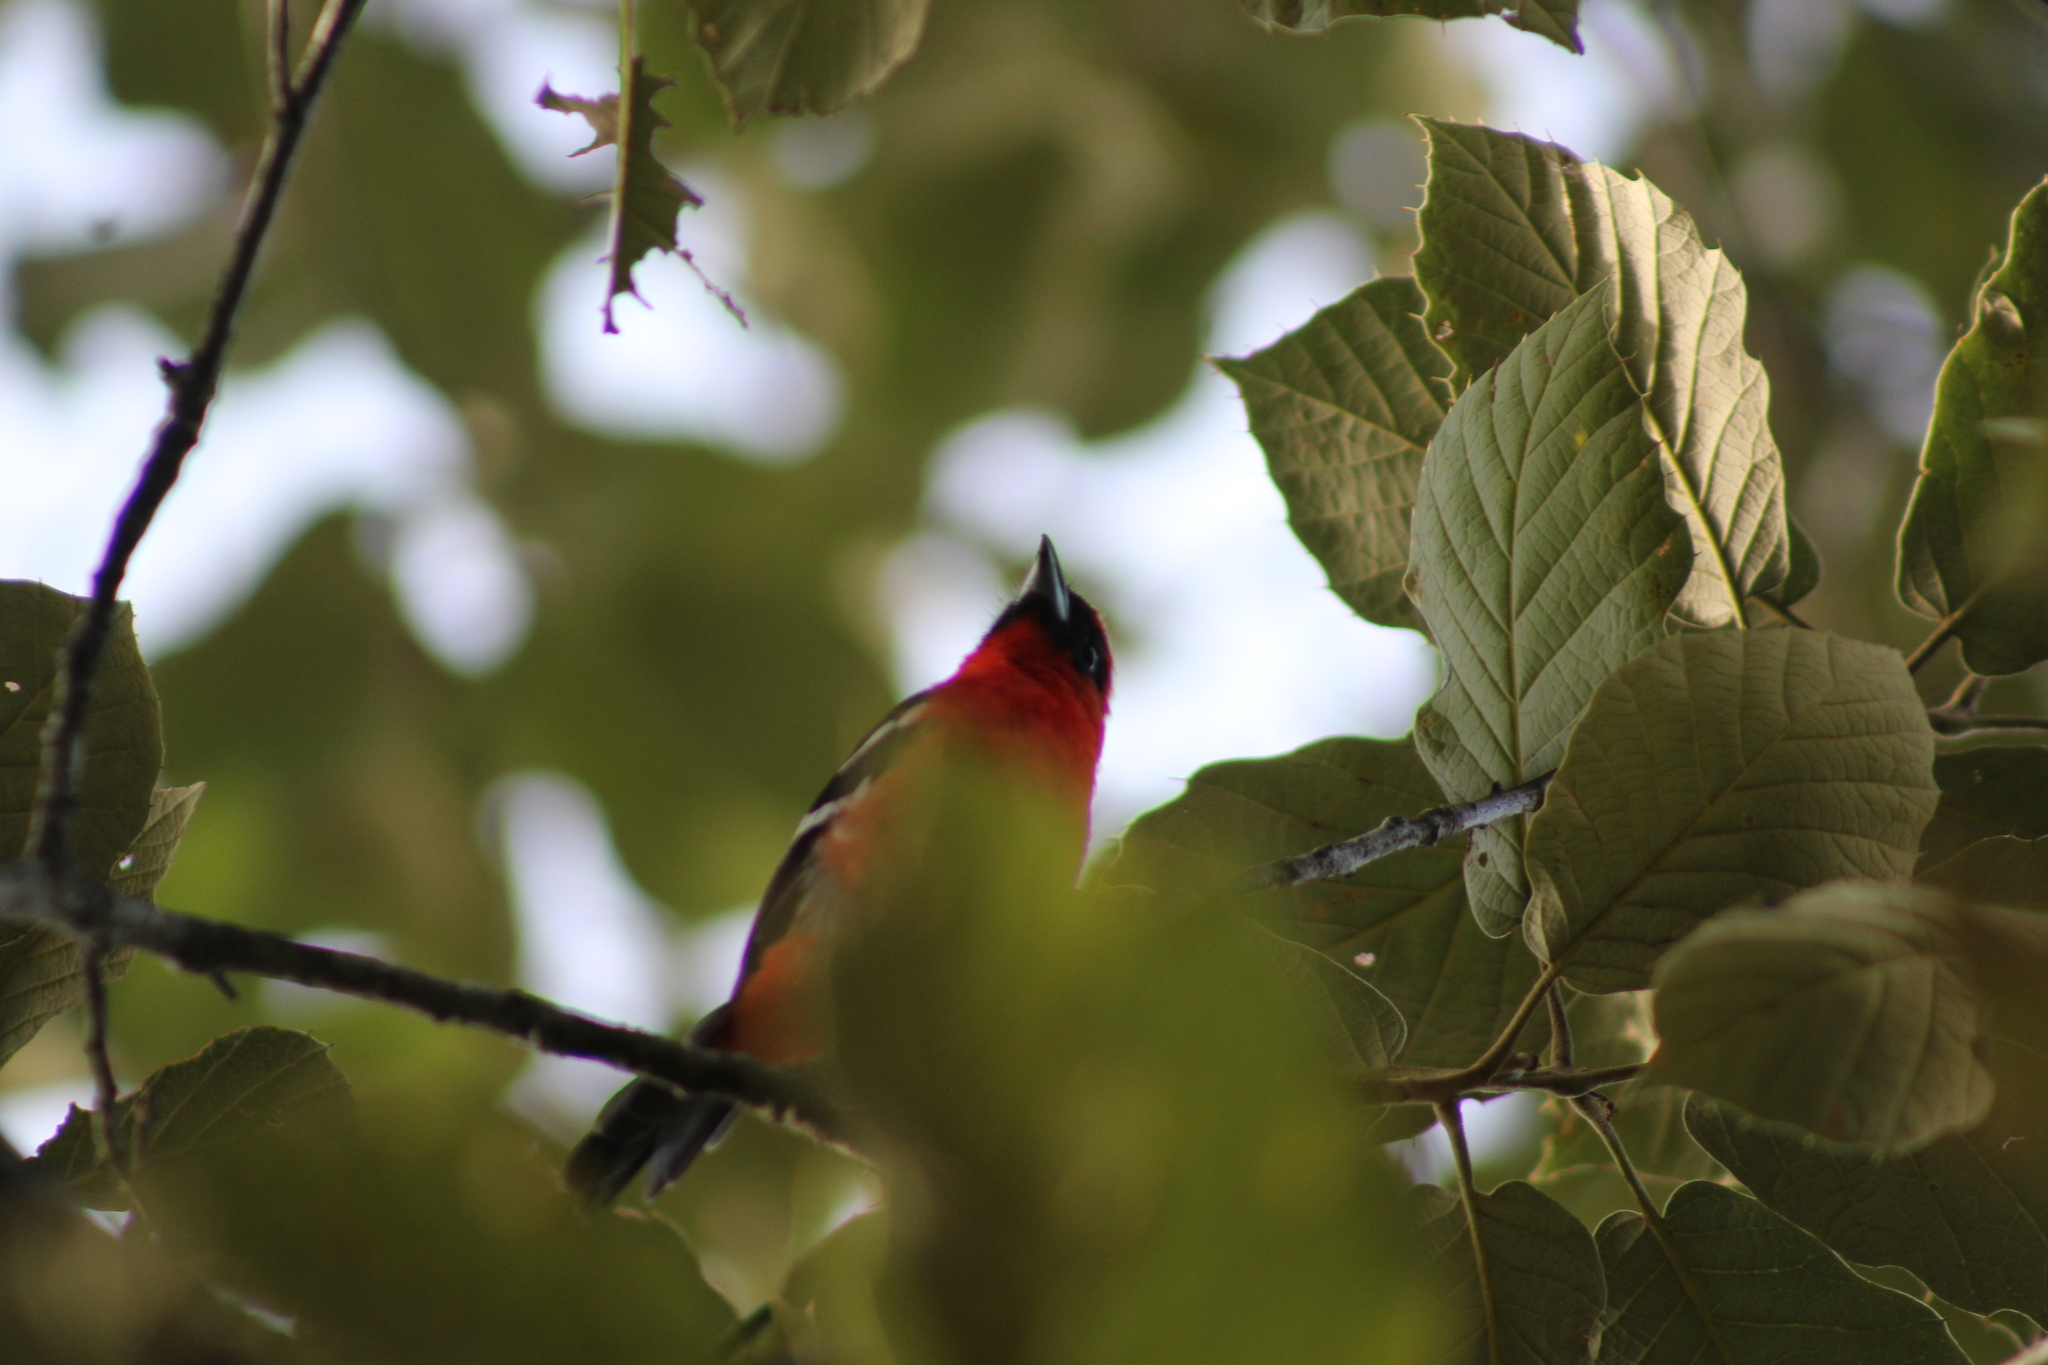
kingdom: Animalia
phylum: Chordata
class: Aves
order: Passeriformes
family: Cardinalidae
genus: Piranga
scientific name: Piranga leucoptera
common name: White-winged tanager
